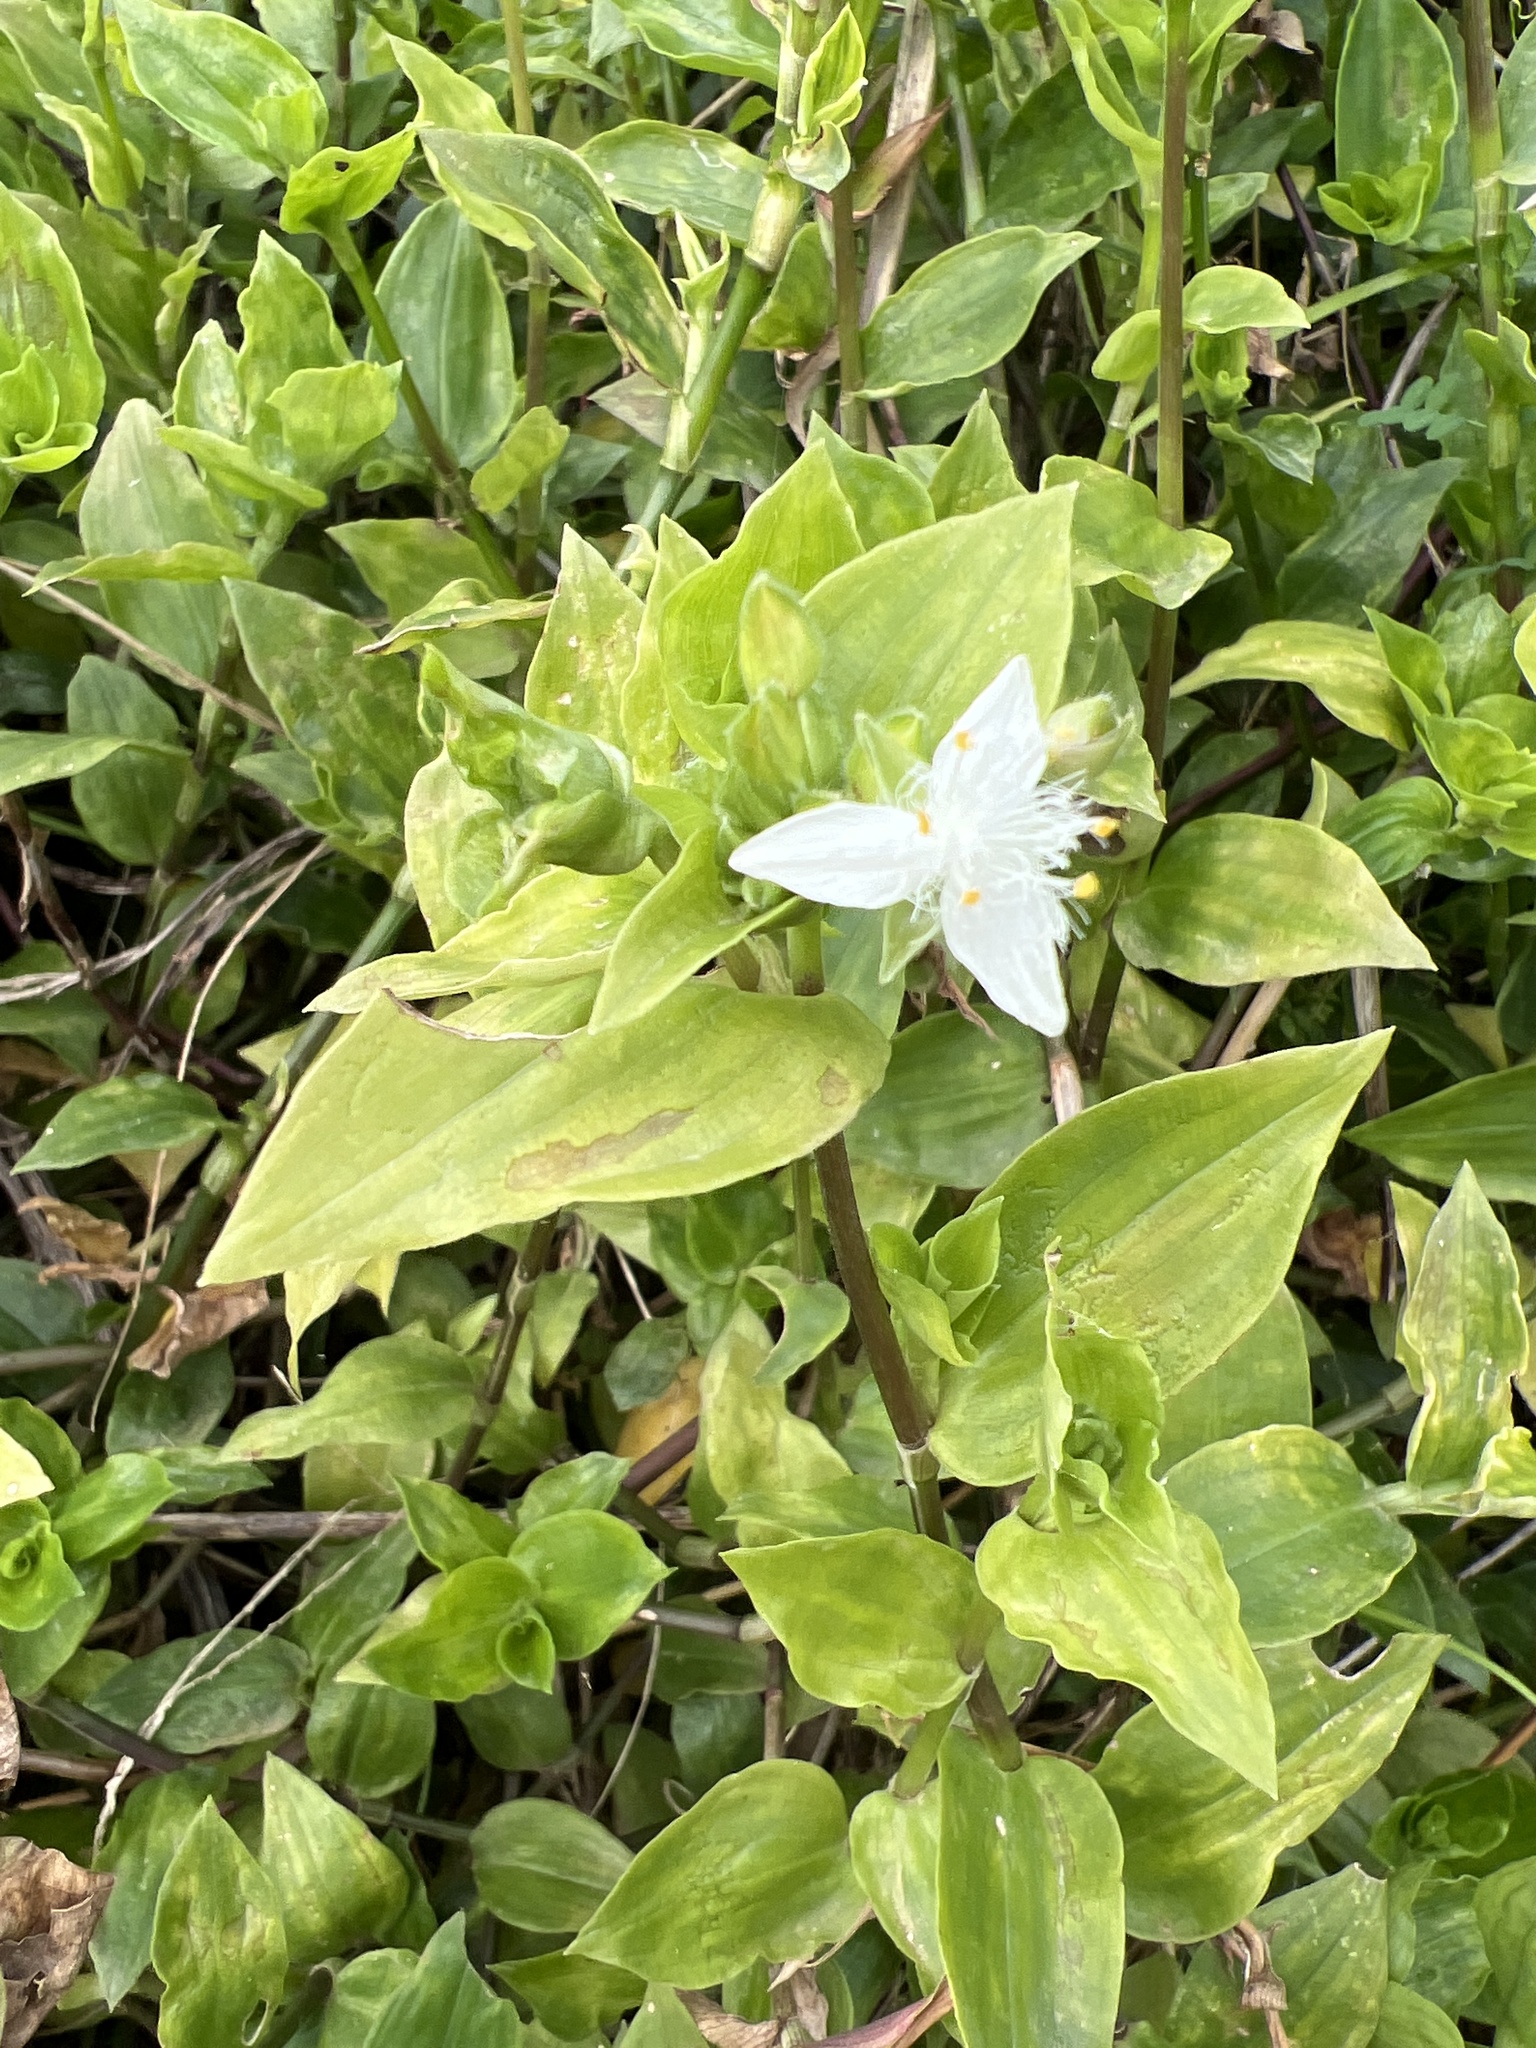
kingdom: Plantae
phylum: Tracheophyta
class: Liliopsida
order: Commelinales
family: Commelinaceae
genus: Tradescantia
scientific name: Tradescantia fluminensis
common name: Wandering-jew
